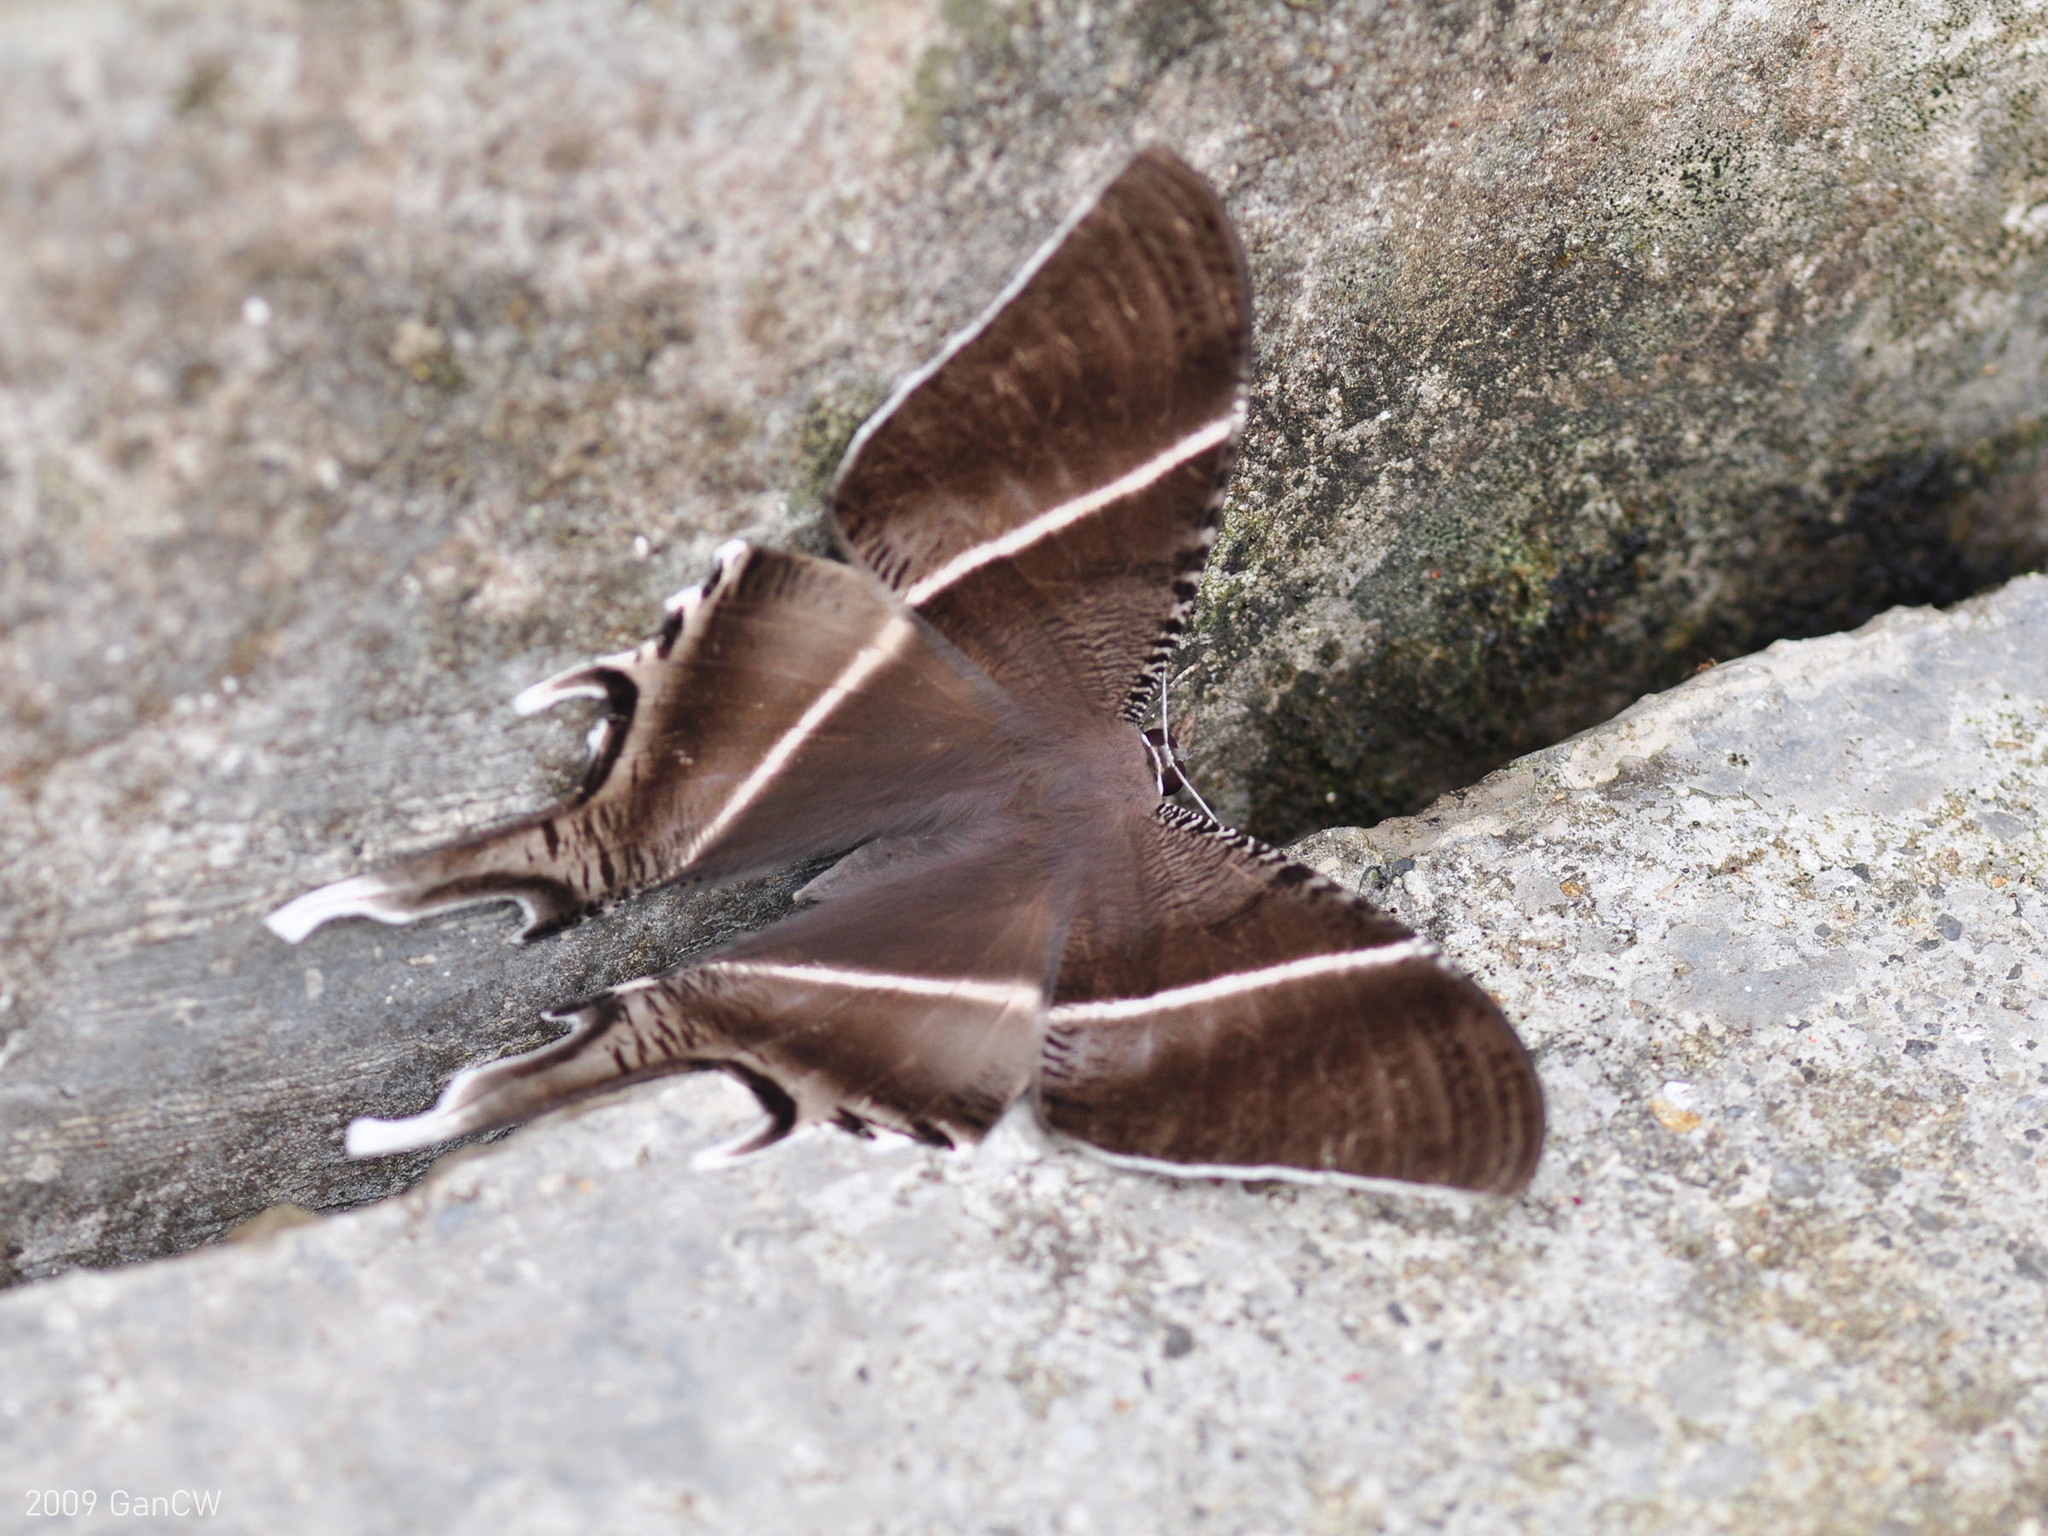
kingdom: Animalia
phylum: Arthropoda
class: Insecta
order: Lepidoptera
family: Uraniidae
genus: Lyssa
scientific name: Lyssa zampa
